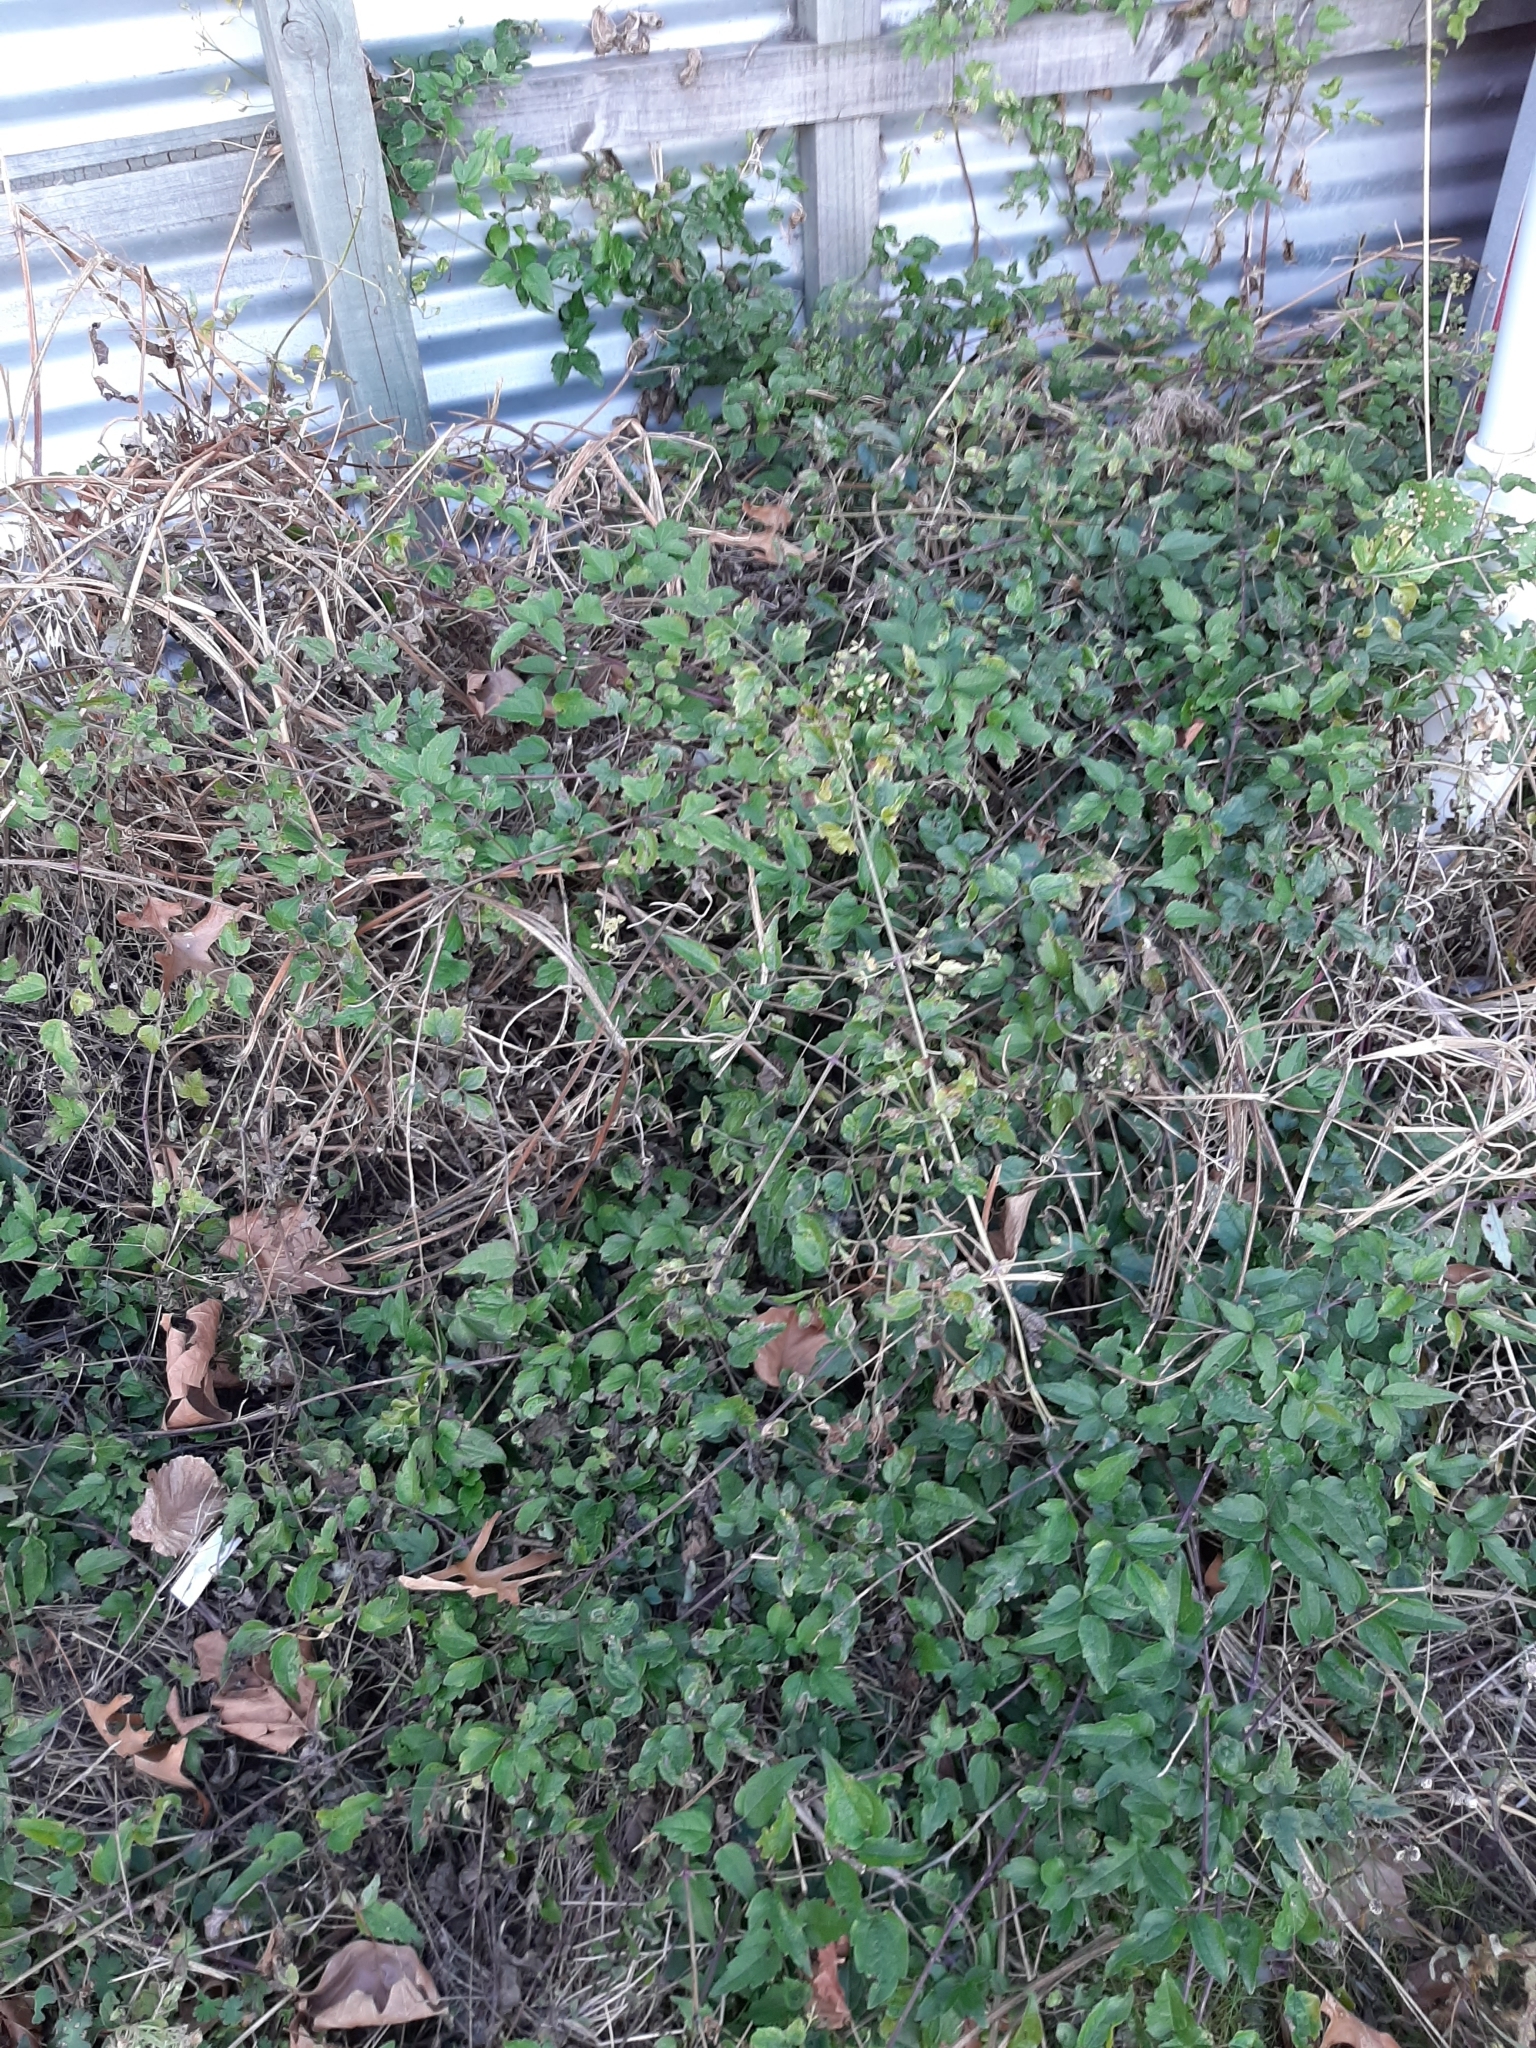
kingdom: Plantae
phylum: Tracheophyta
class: Magnoliopsida
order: Ranunculales
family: Ranunculaceae
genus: Clematis
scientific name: Clematis vitalba
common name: Evergreen clematis
